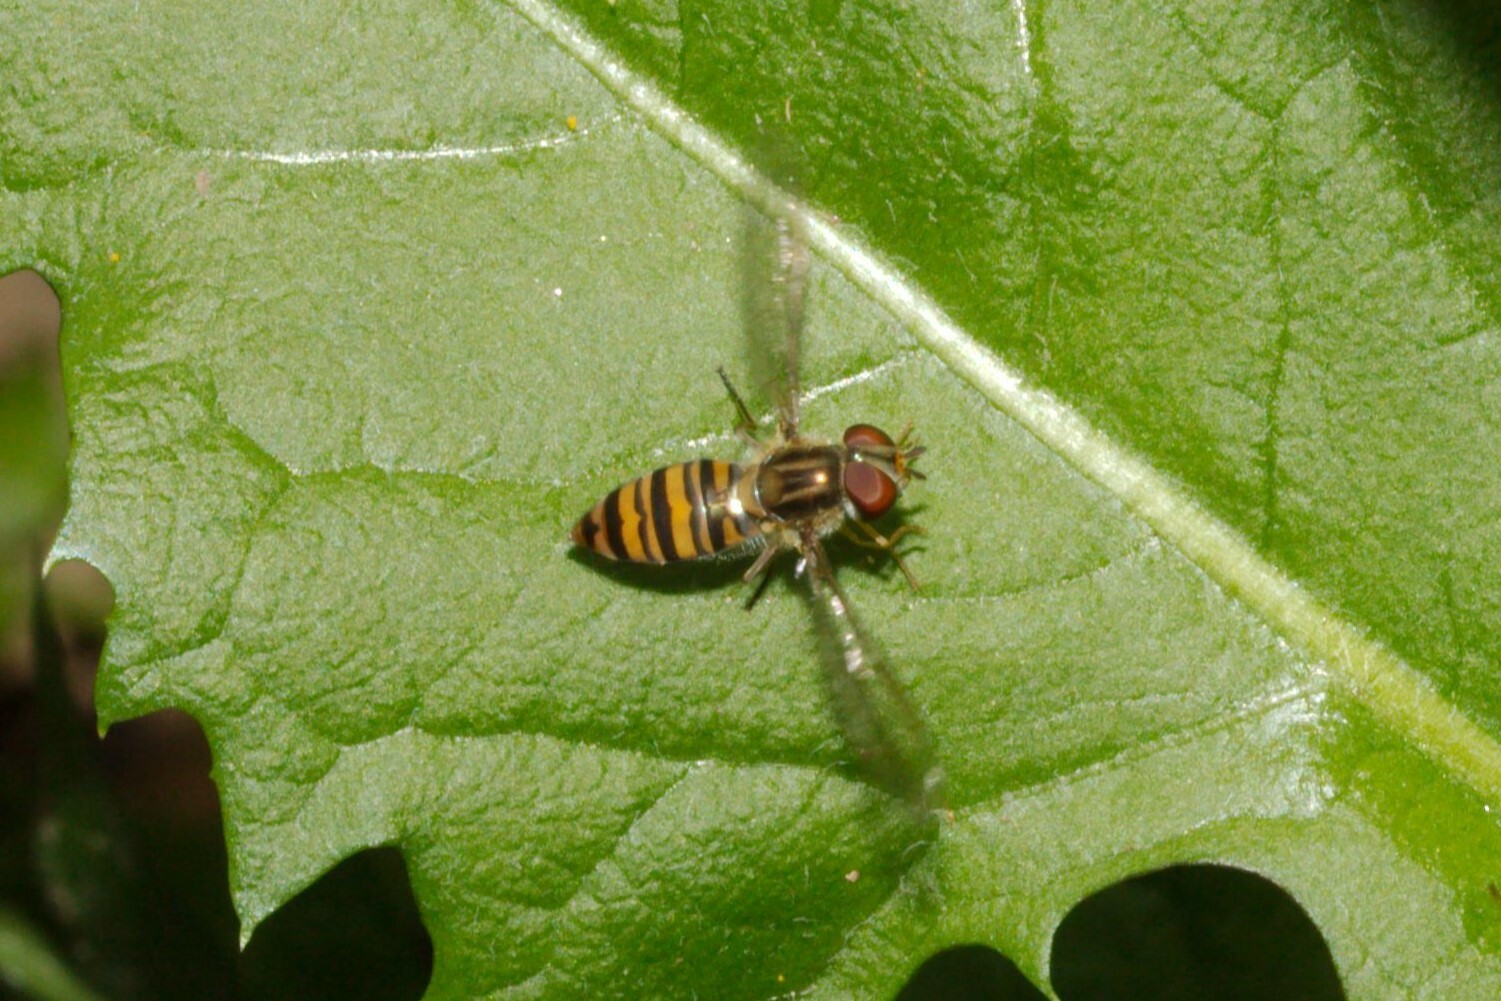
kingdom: Animalia
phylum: Arthropoda
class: Insecta
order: Diptera
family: Syrphidae
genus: Episyrphus
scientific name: Episyrphus balteatus
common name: Marmalade hoverfly
